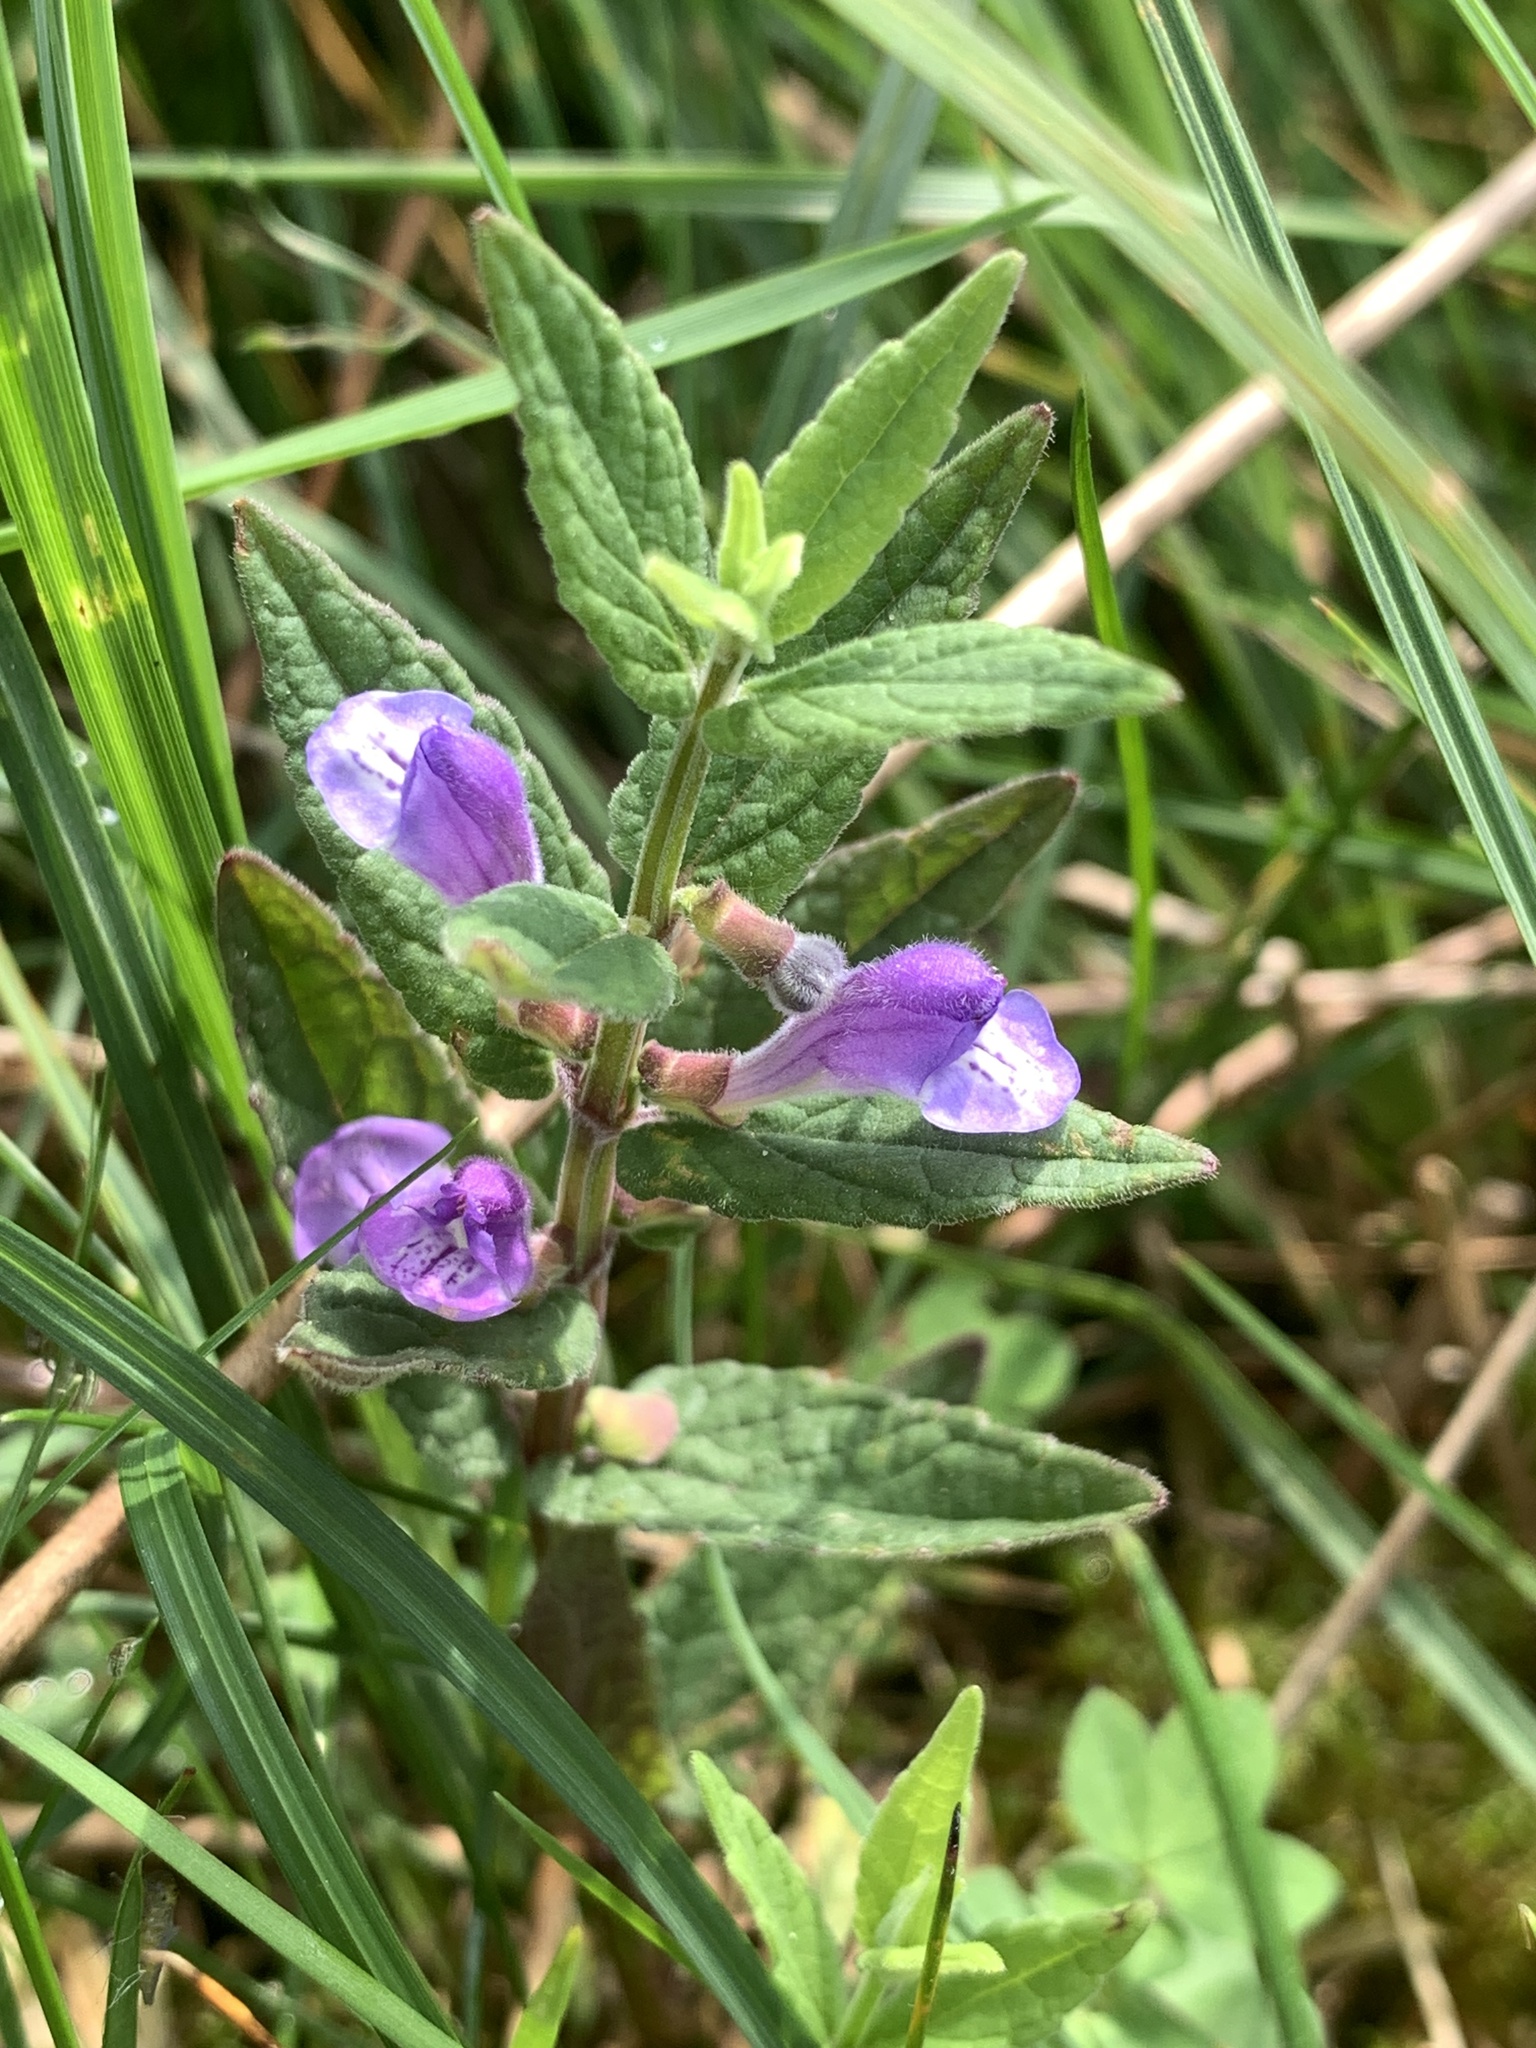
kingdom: Plantae
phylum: Tracheophyta
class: Magnoliopsida
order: Lamiales
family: Lamiaceae
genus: Scutellaria
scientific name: Scutellaria galericulata
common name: Skullcap
